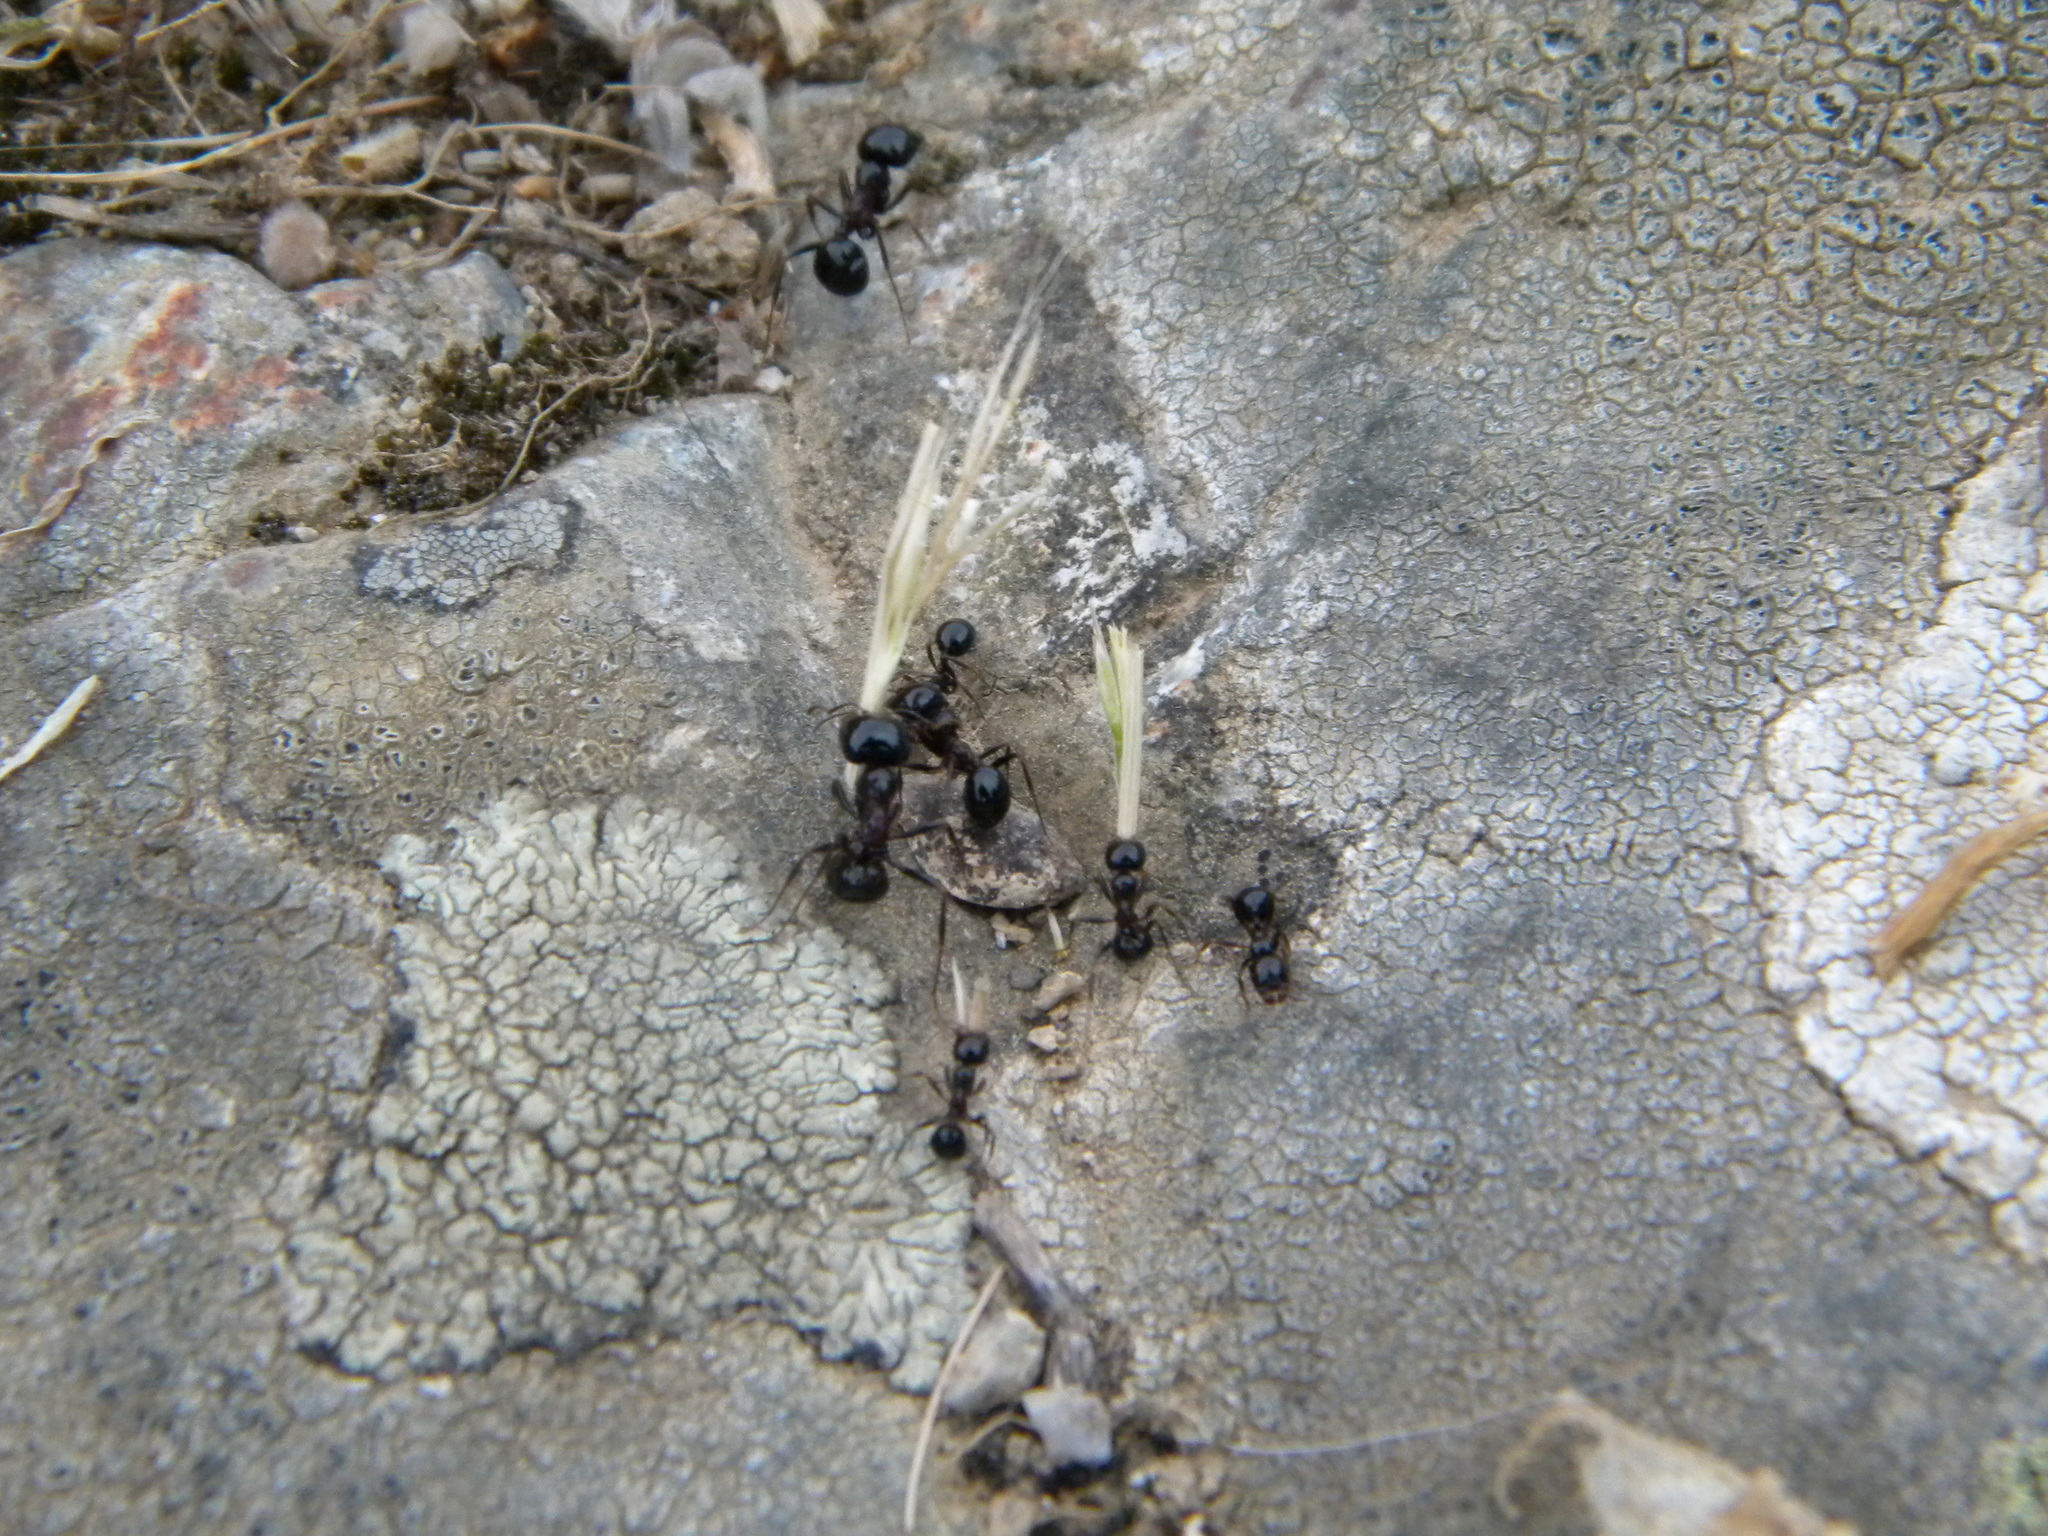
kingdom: Animalia
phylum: Arthropoda
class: Insecta
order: Hymenoptera
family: Formicidae
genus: Messor
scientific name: Messor wasmanni
